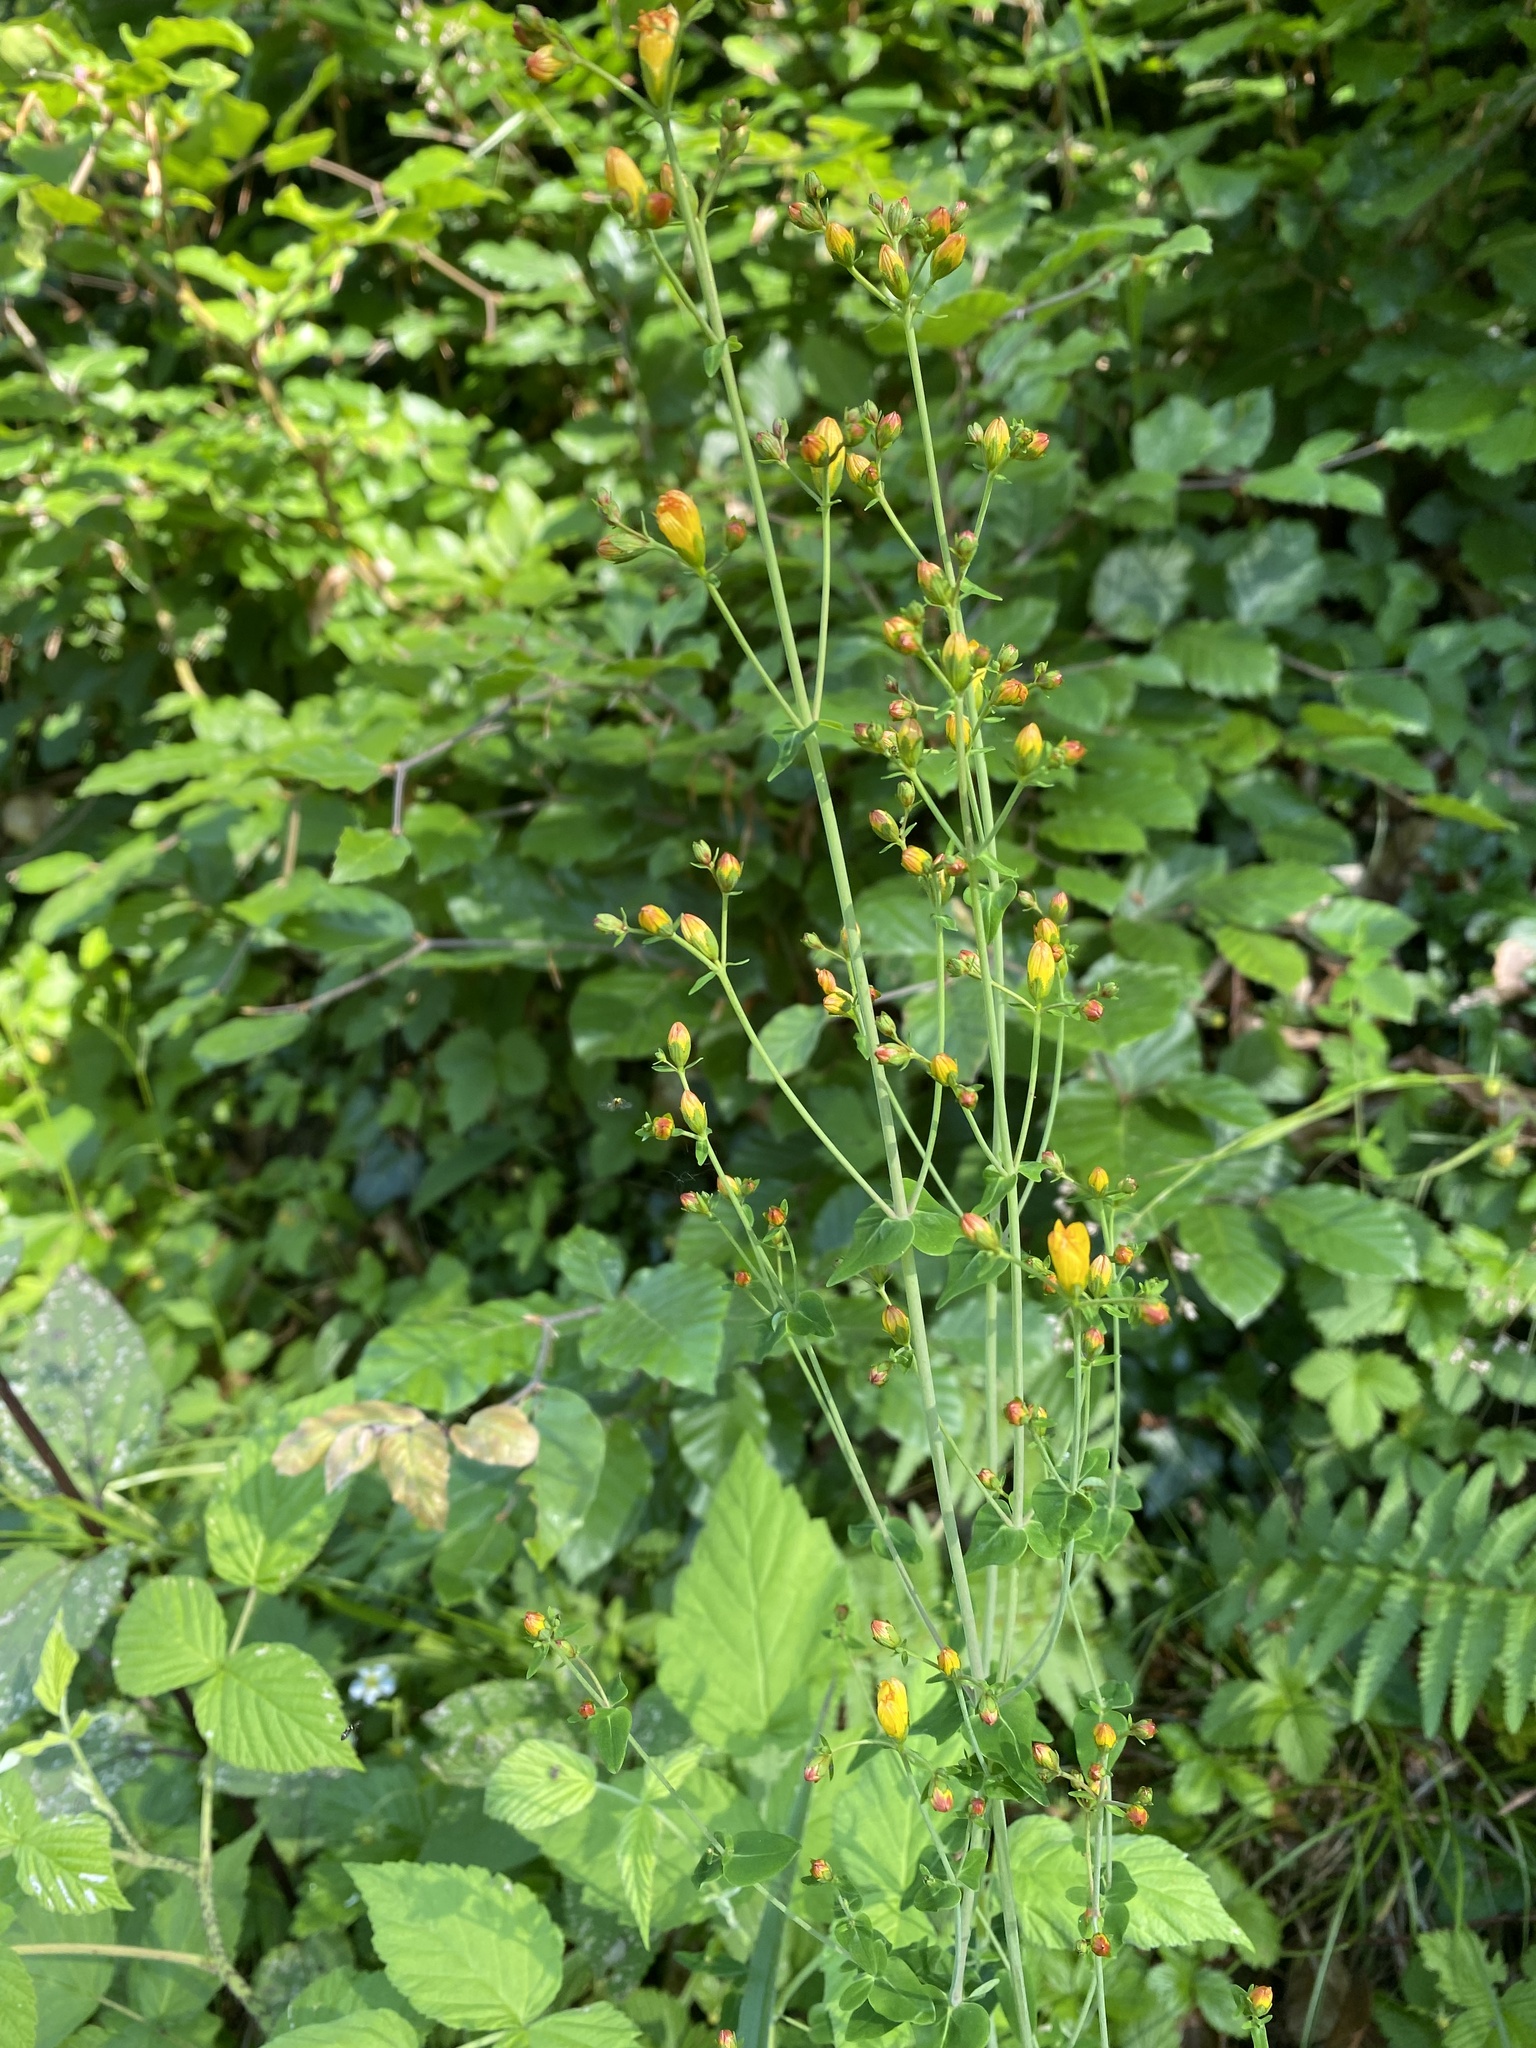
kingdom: Plantae
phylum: Tracheophyta
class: Magnoliopsida
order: Malpighiales
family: Hypericaceae
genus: Hypericum
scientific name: Hypericum pulchrum
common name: Slender st. john's-wort
